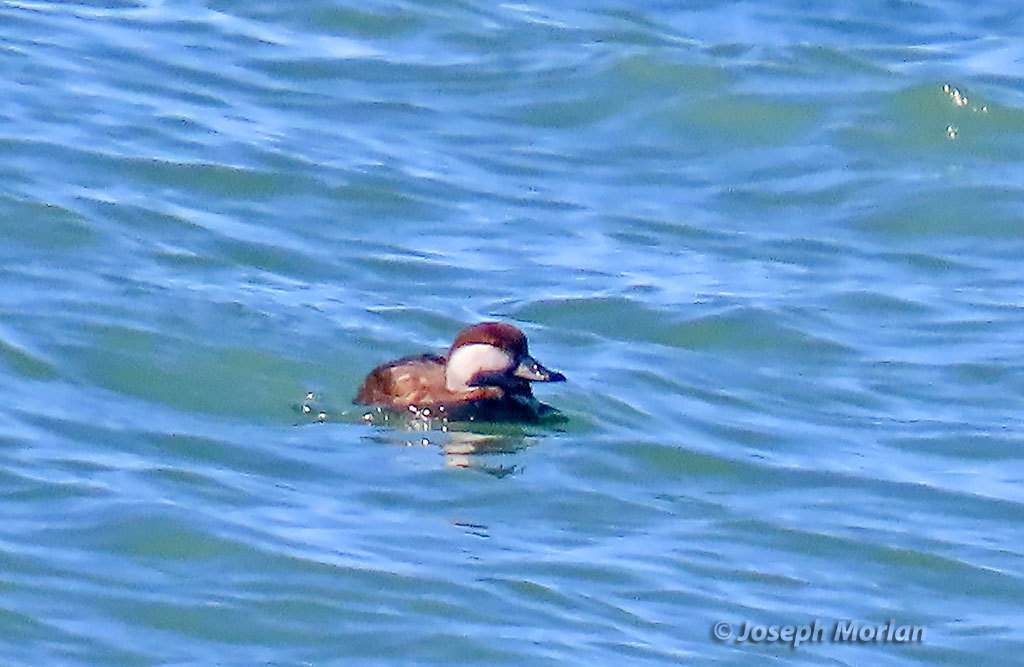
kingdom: Animalia
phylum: Chordata
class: Aves
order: Anseriformes
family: Anatidae
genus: Melanitta
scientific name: Melanitta americana
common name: Black scoter
